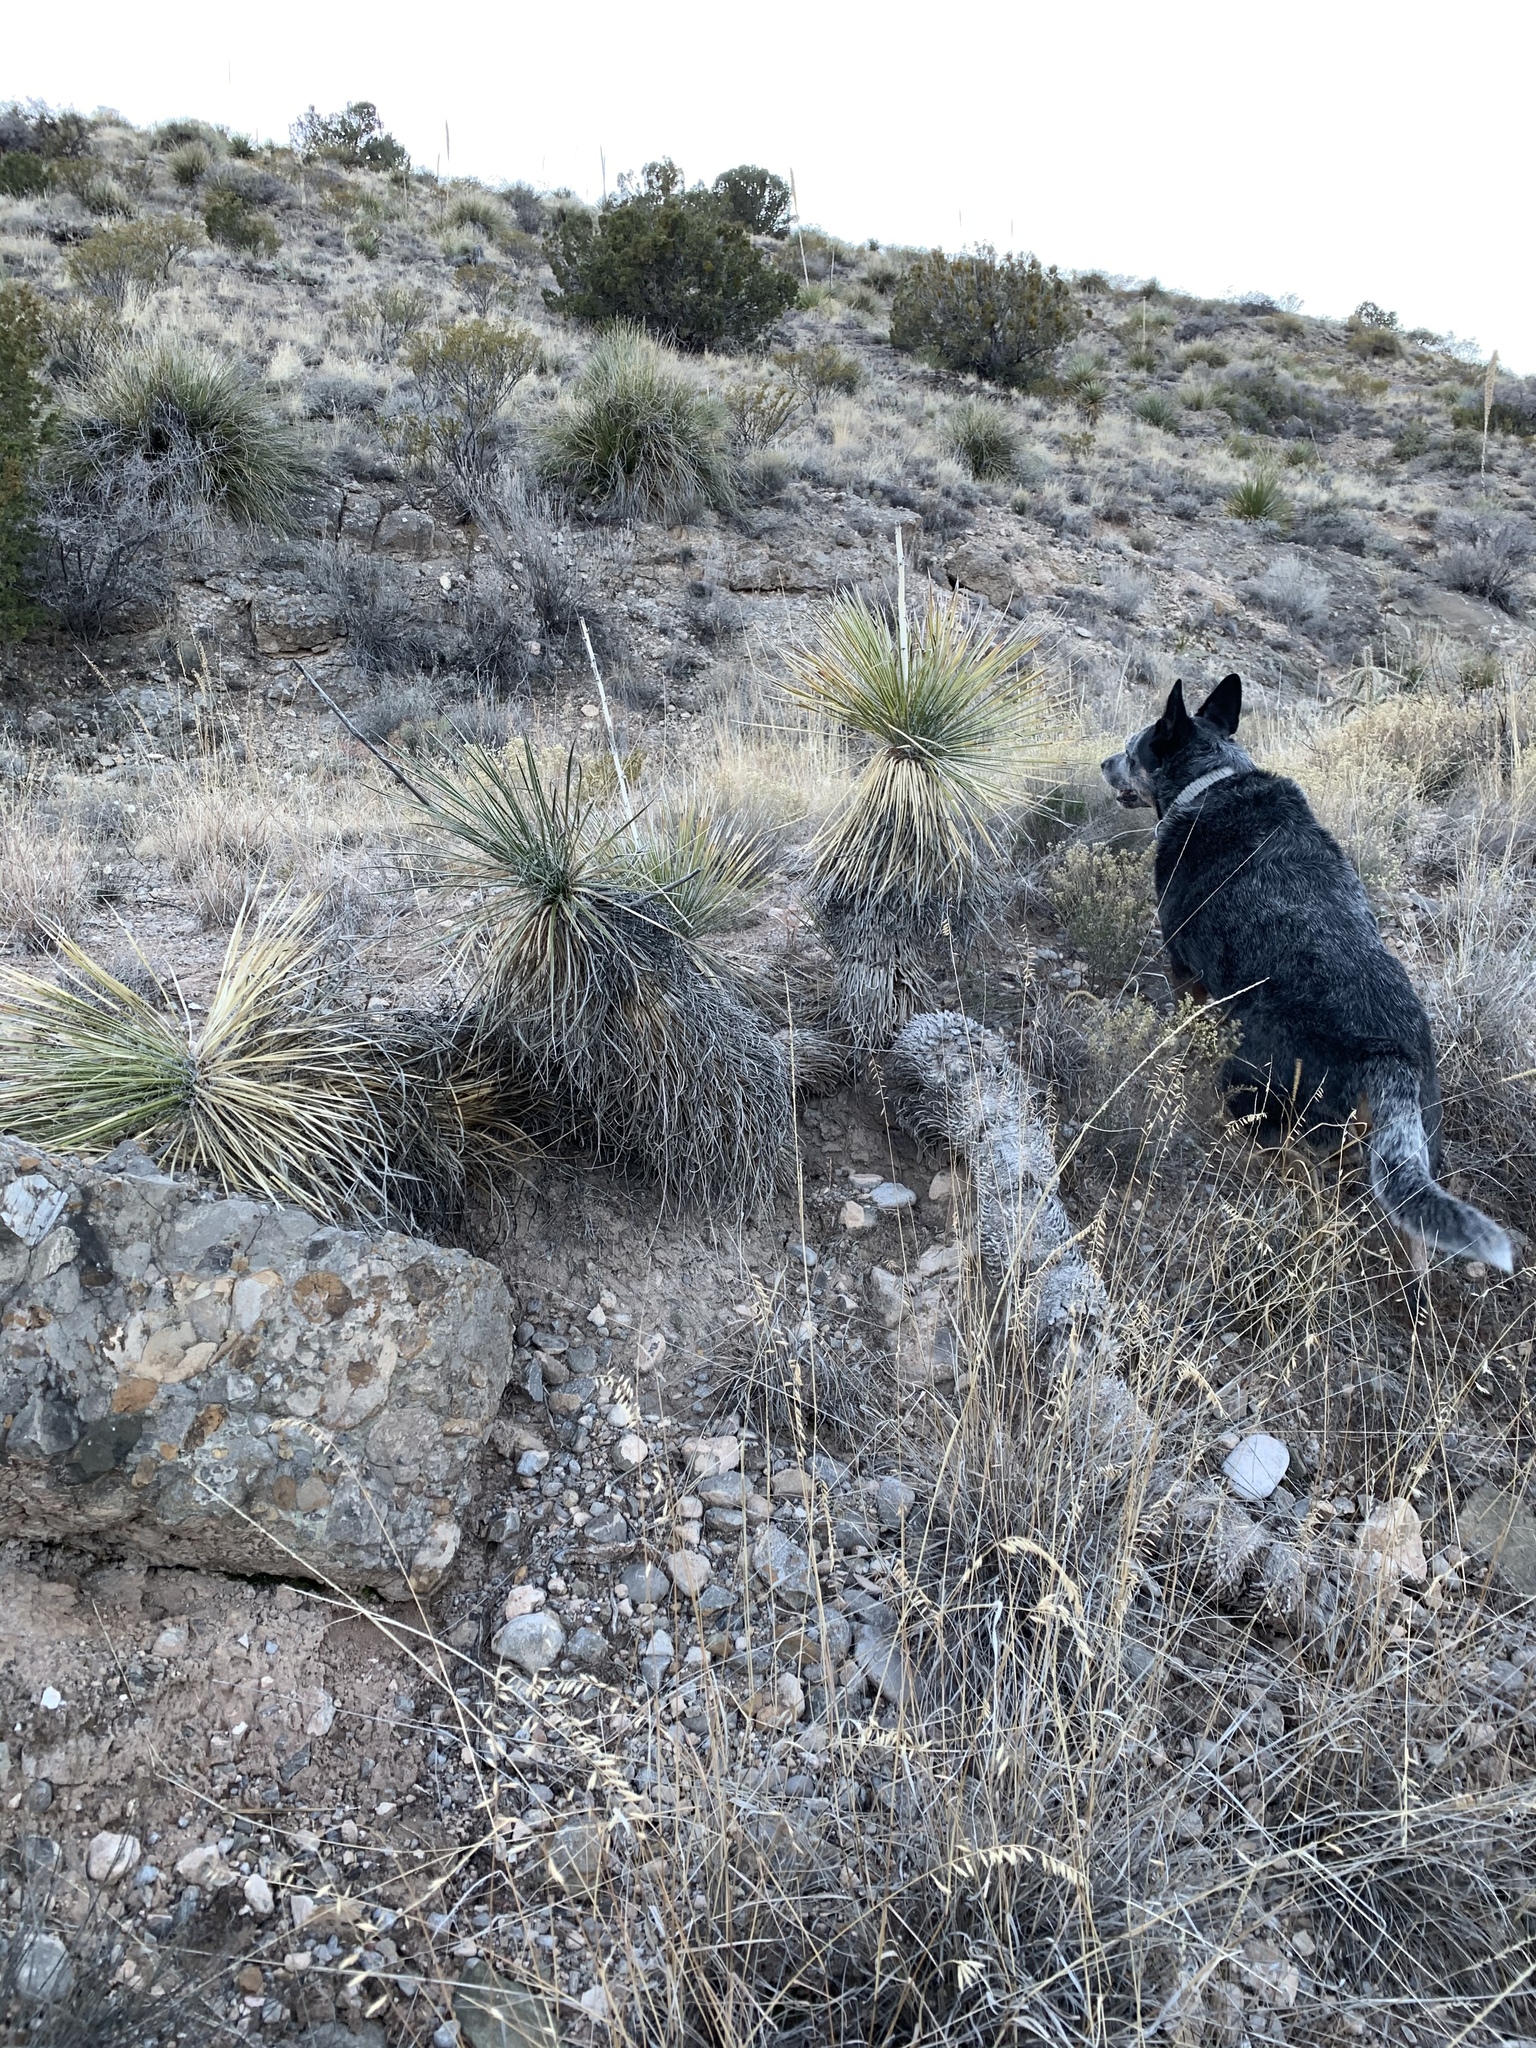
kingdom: Plantae
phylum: Tracheophyta
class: Liliopsida
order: Asparagales
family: Asparagaceae
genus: Yucca
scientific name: Yucca elata
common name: Palmella
